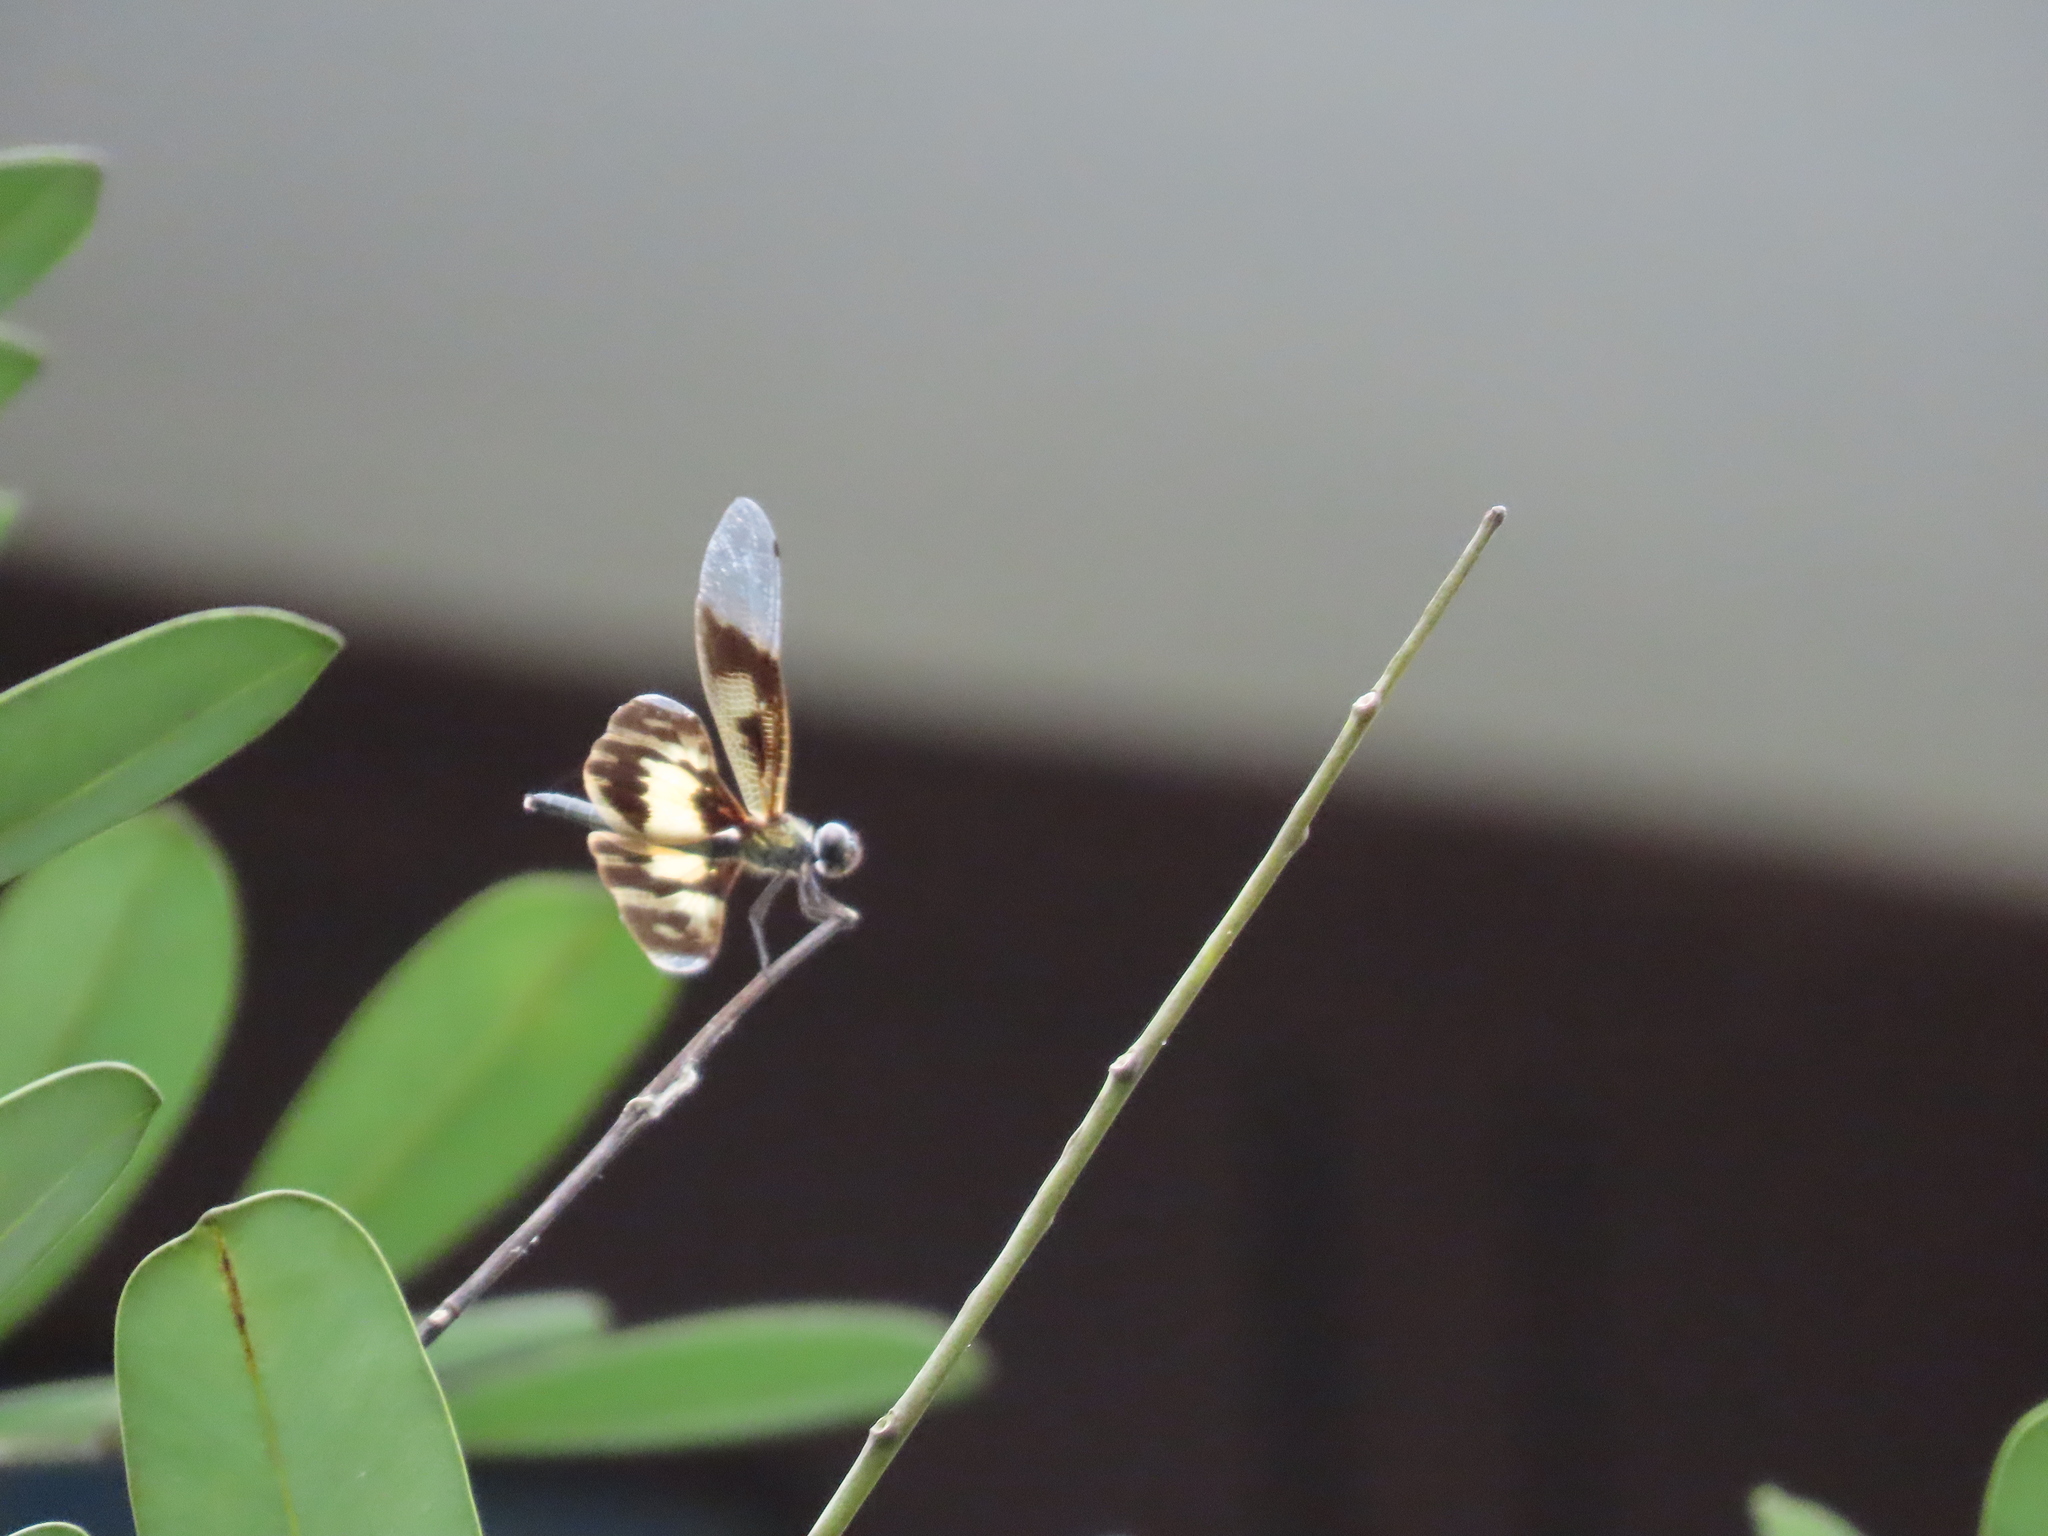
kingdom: Animalia
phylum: Arthropoda
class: Insecta
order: Odonata
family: Libellulidae
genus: Rhyothemis
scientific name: Rhyothemis variegata
